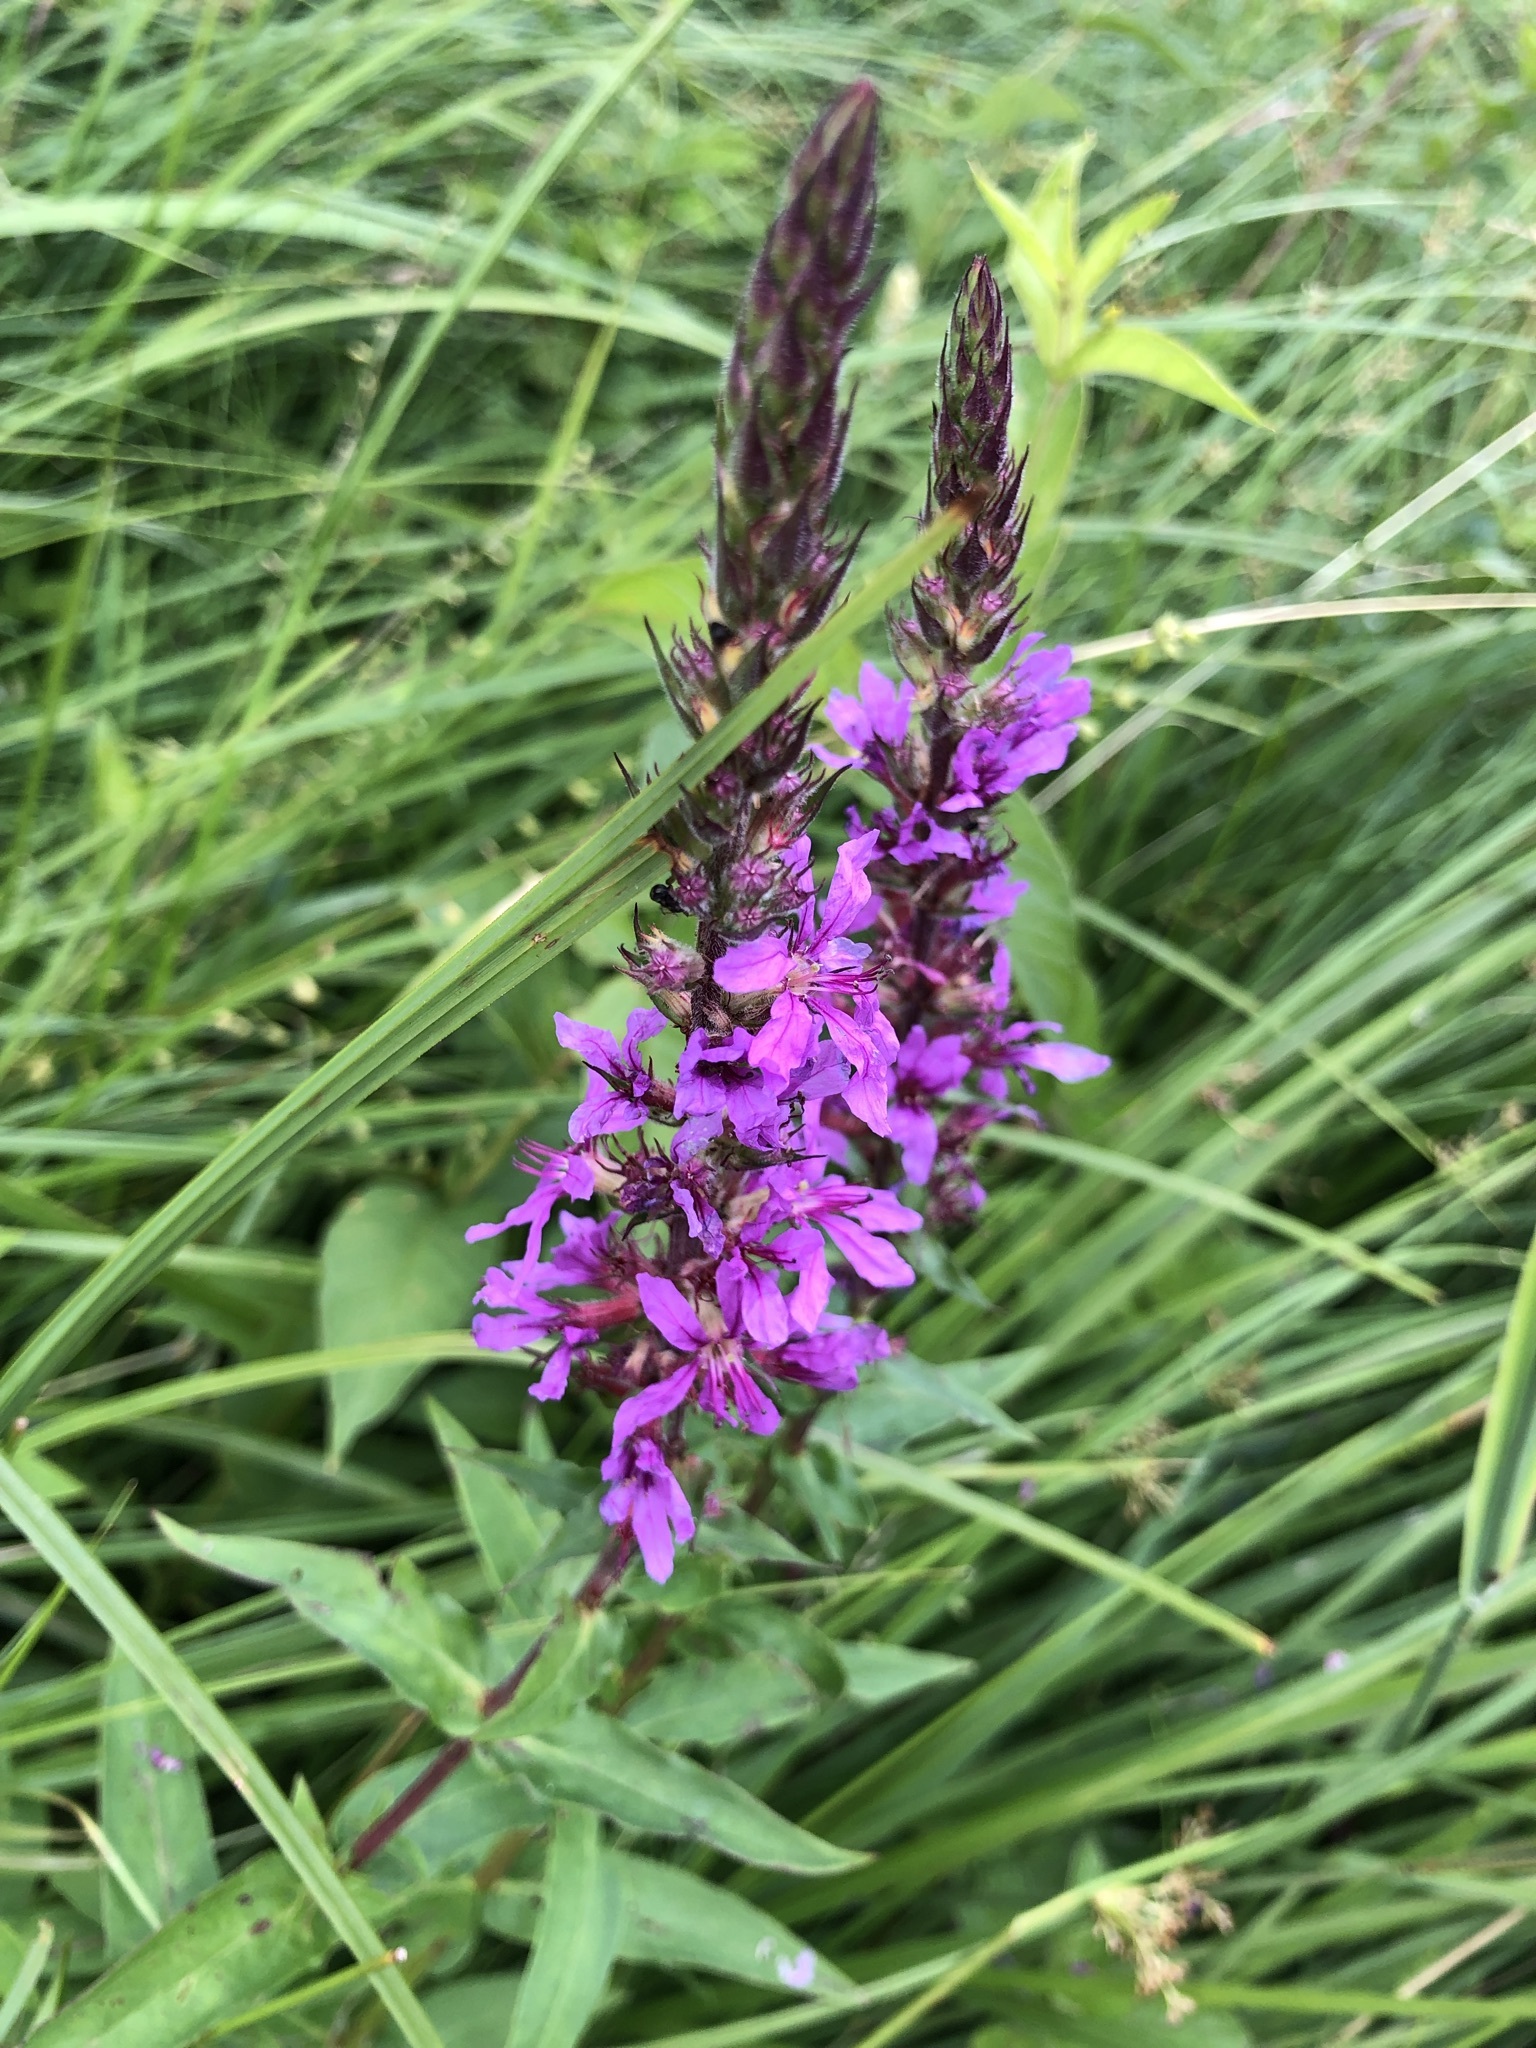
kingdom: Plantae
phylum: Tracheophyta
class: Magnoliopsida
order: Myrtales
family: Lythraceae
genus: Lythrum
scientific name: Lythrum salicaria
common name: Purple loosestrife
